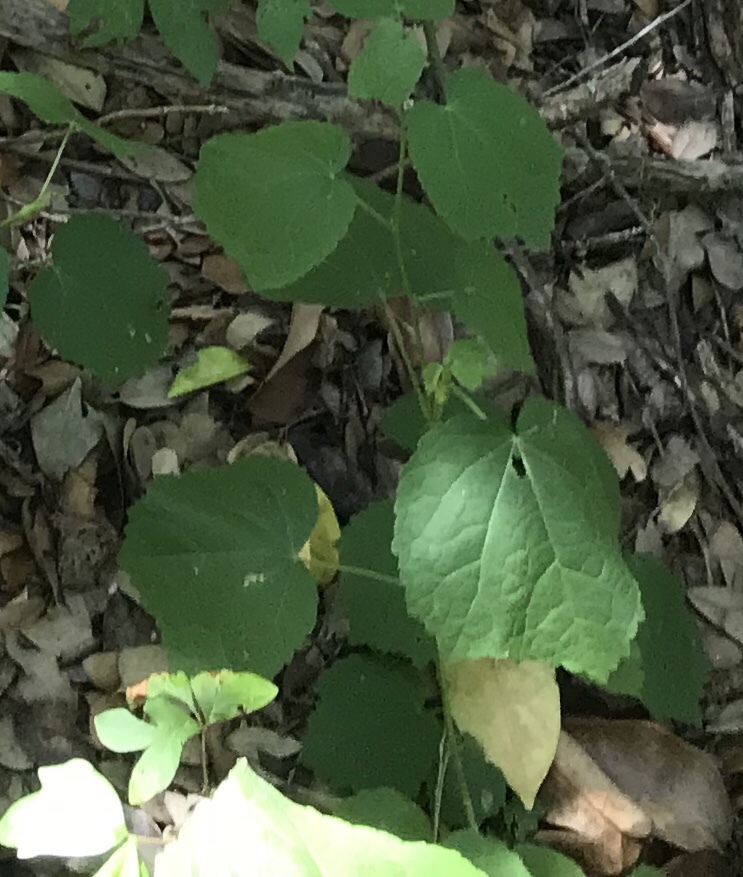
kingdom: Plantae
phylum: Tracheophyta
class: Magnoliopsida
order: Malvales
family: Malvaceae
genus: Malvaviscus
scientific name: Malvaviscus arboreus
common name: Wax mallow
